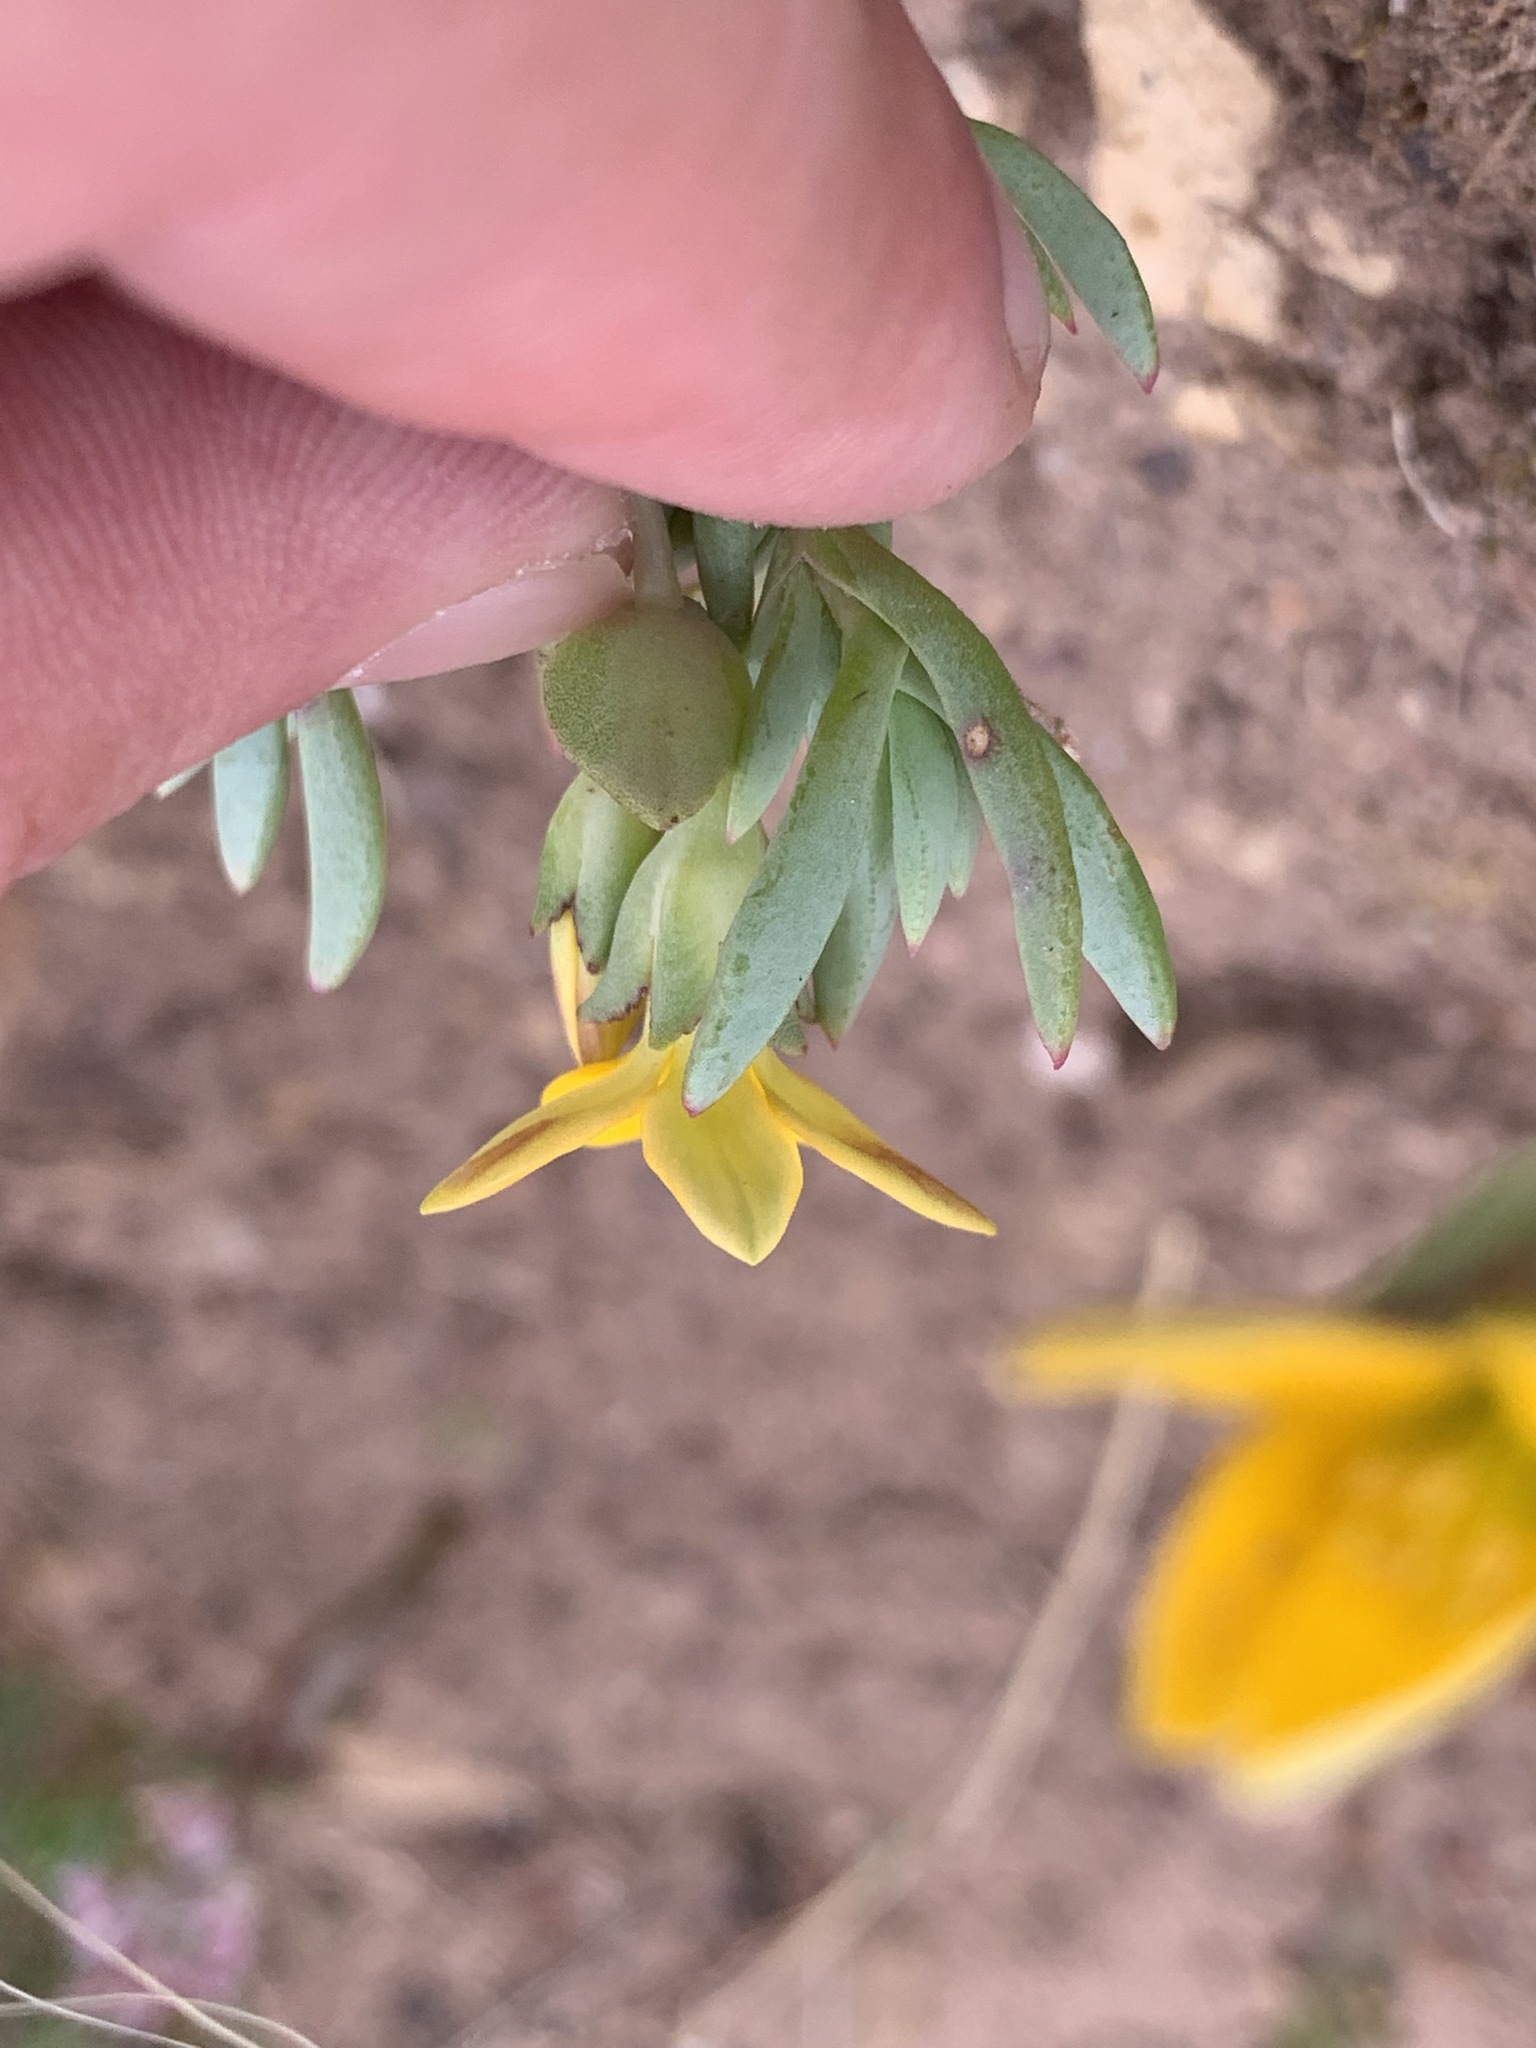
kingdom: Plantae
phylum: Tracheophyta
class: Magnoliopsida
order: Saxifragales
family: Crassulaceae
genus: Crassula
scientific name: Crassula dichotoma
